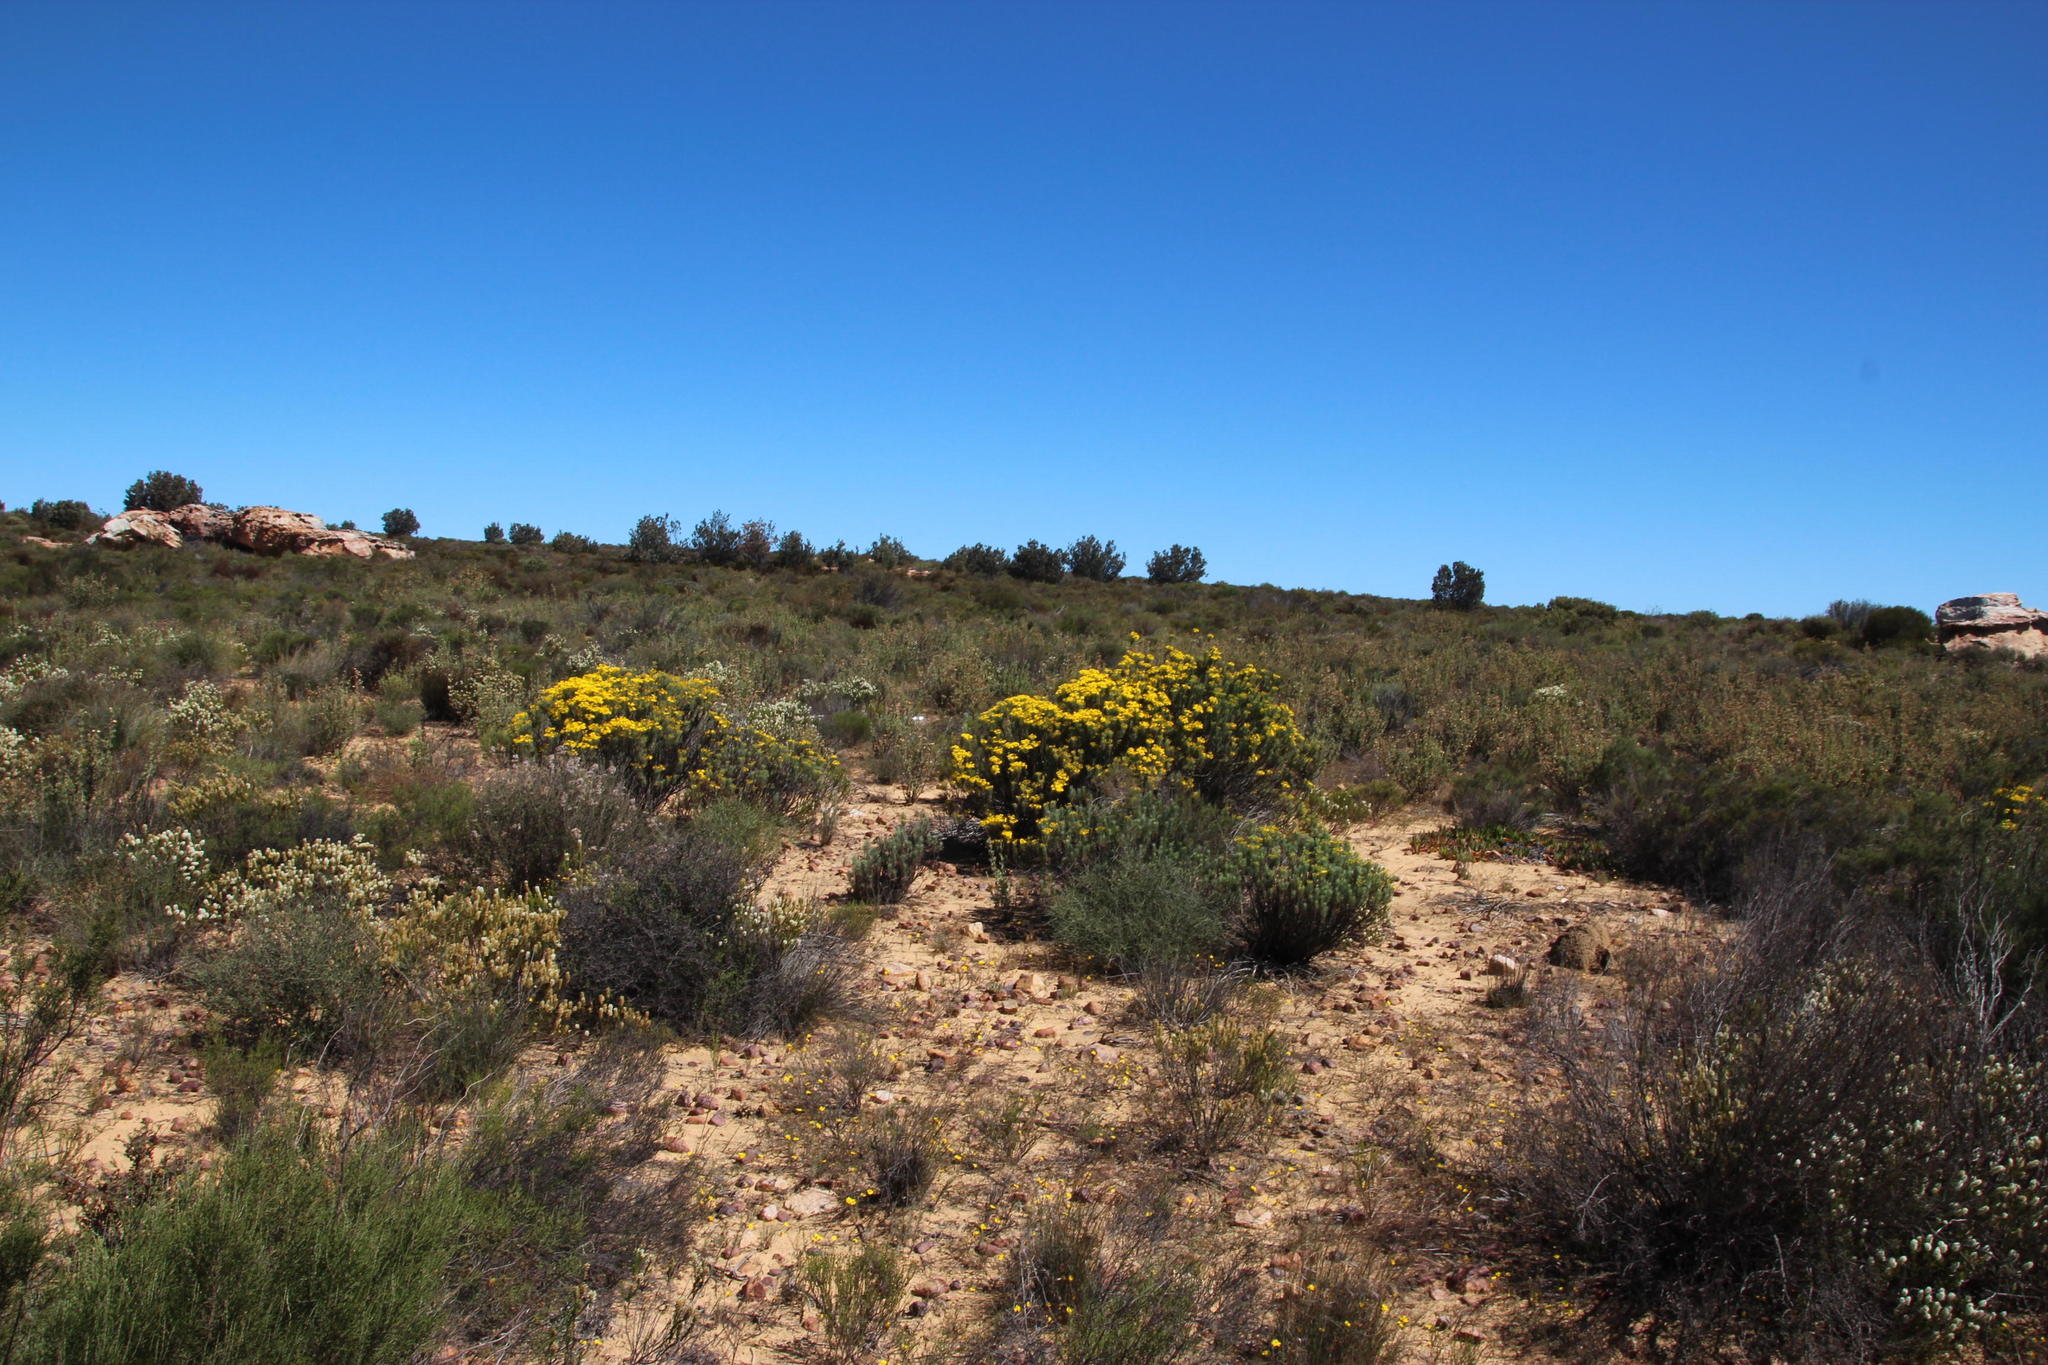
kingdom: Plantae
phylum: Tracheophyta
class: Magnoliopsida
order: Asterales
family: Asteraceae
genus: Euryops
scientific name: Euryops rehmannii
